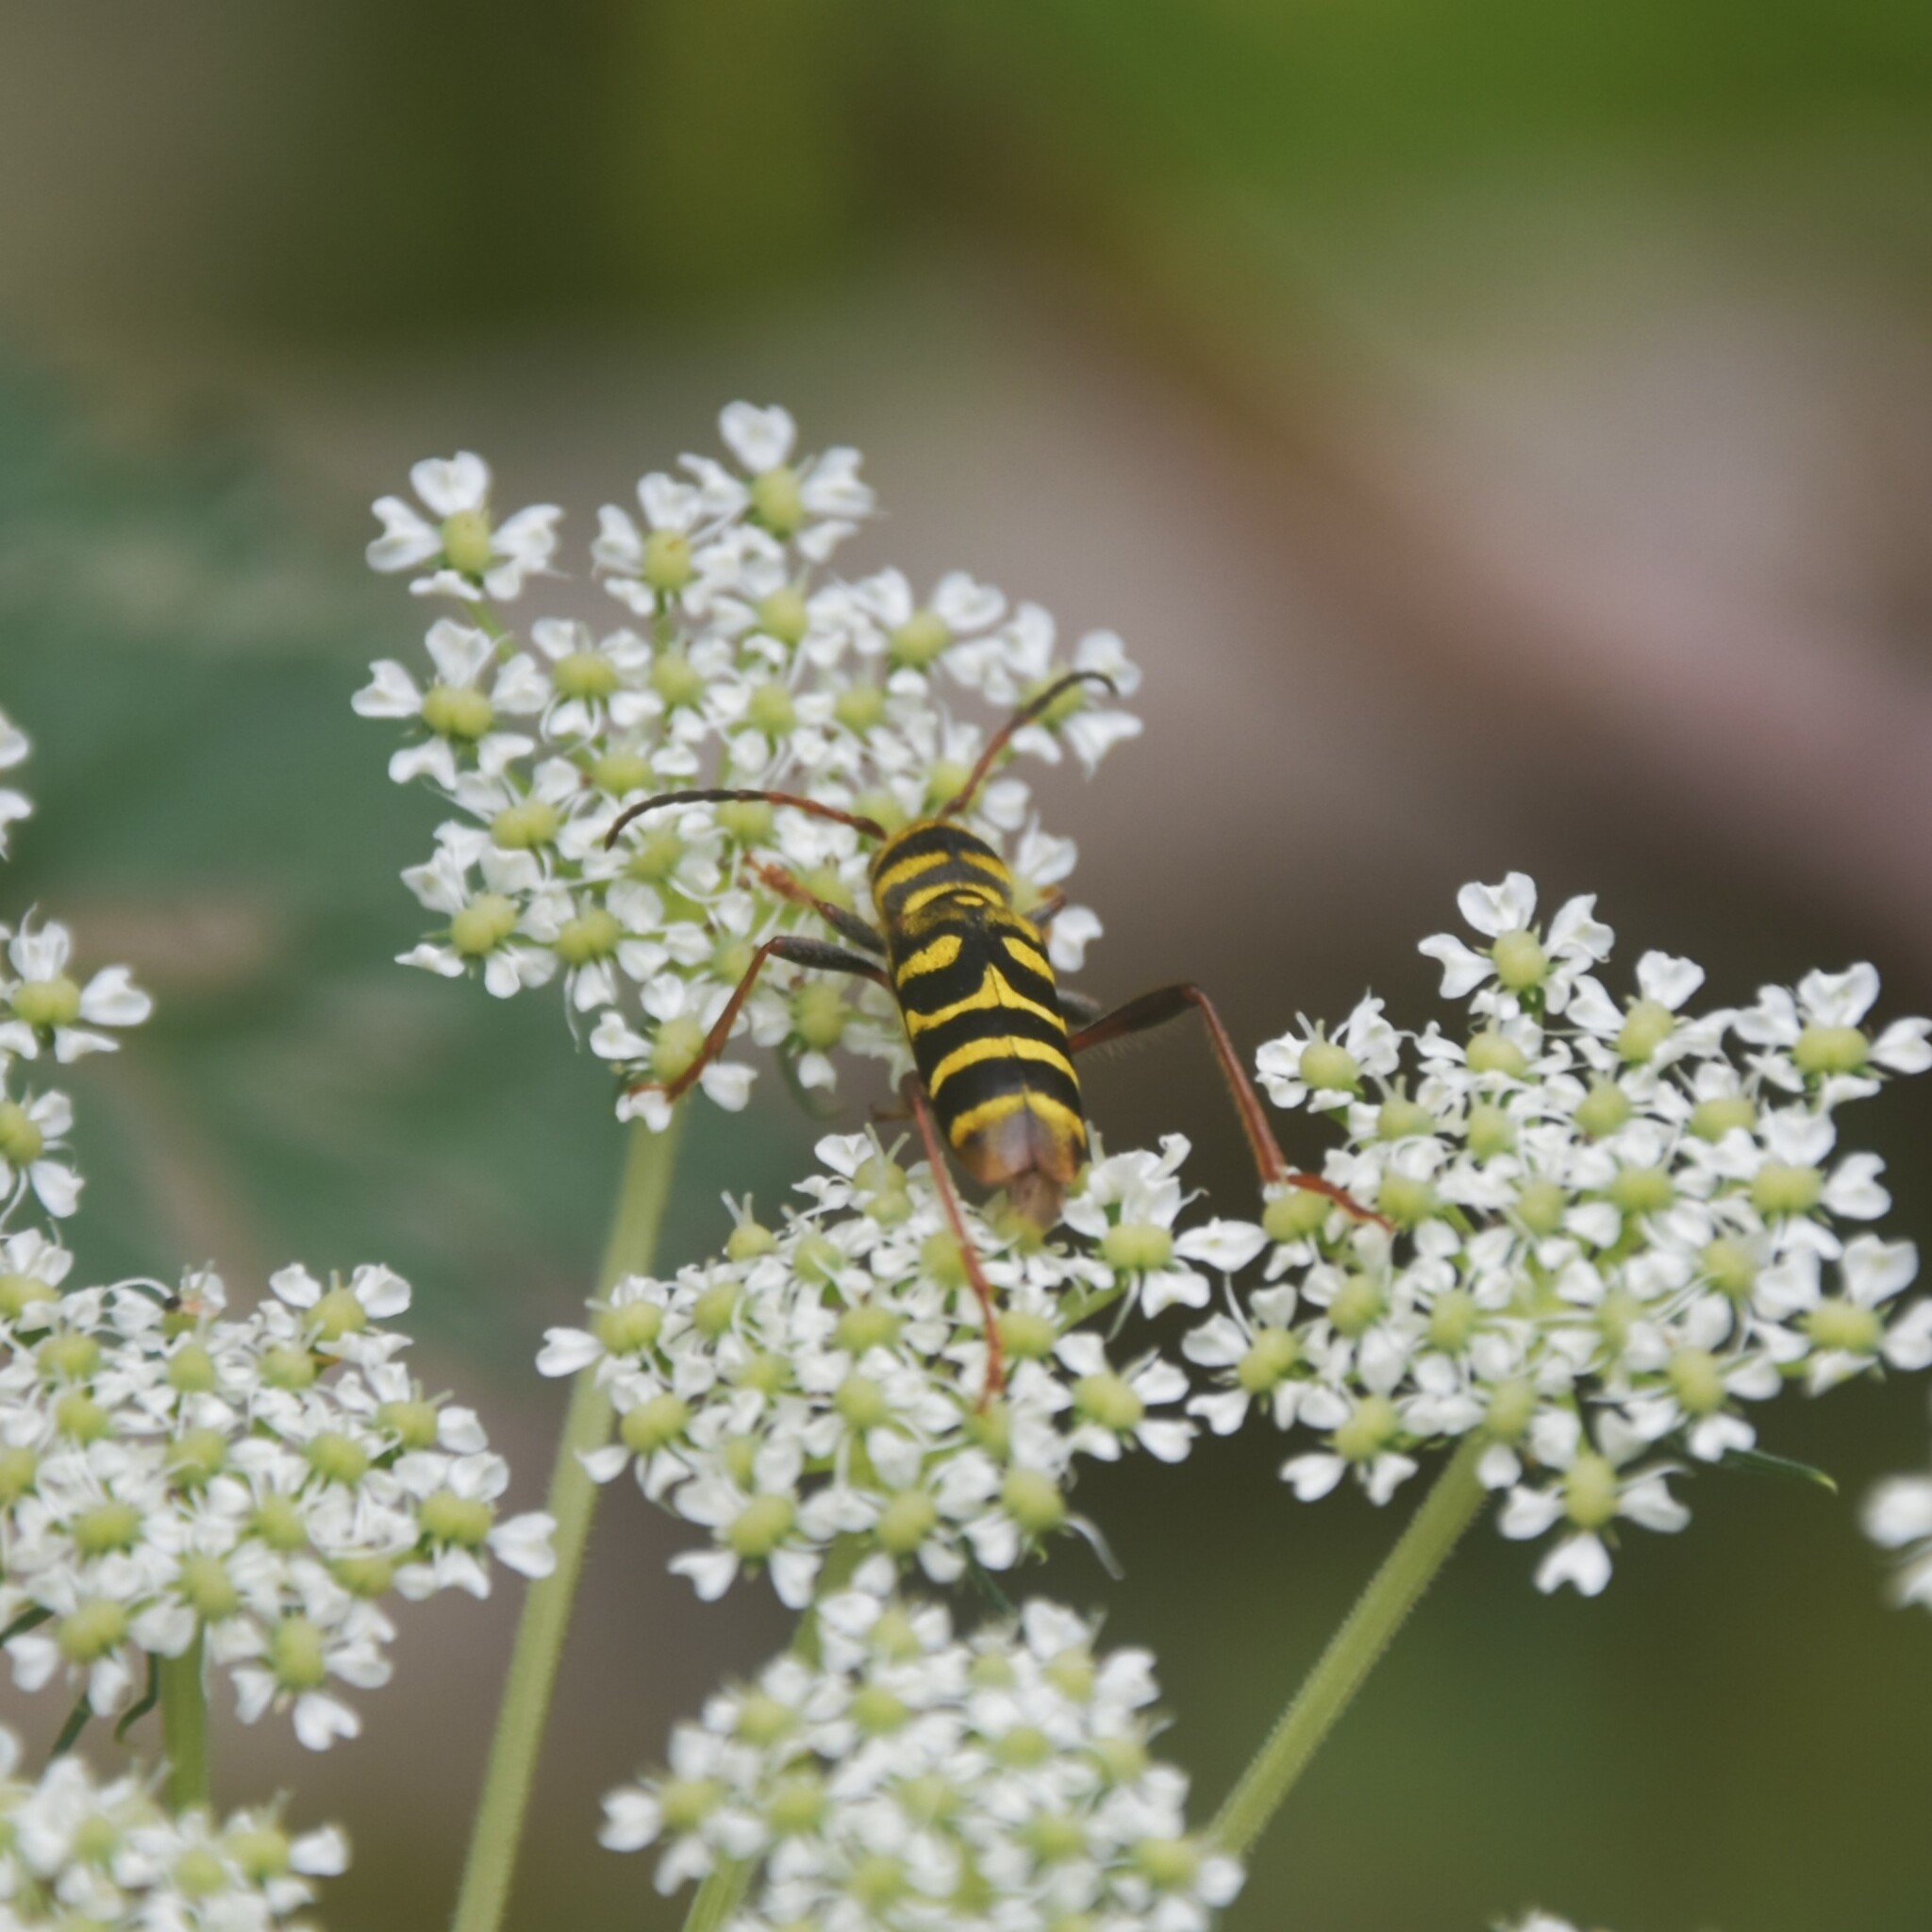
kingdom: Animalia
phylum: Arthropoda
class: Insecta
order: Coleoptera
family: Cerambycidae
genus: Clytus
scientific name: Clytus monticola
